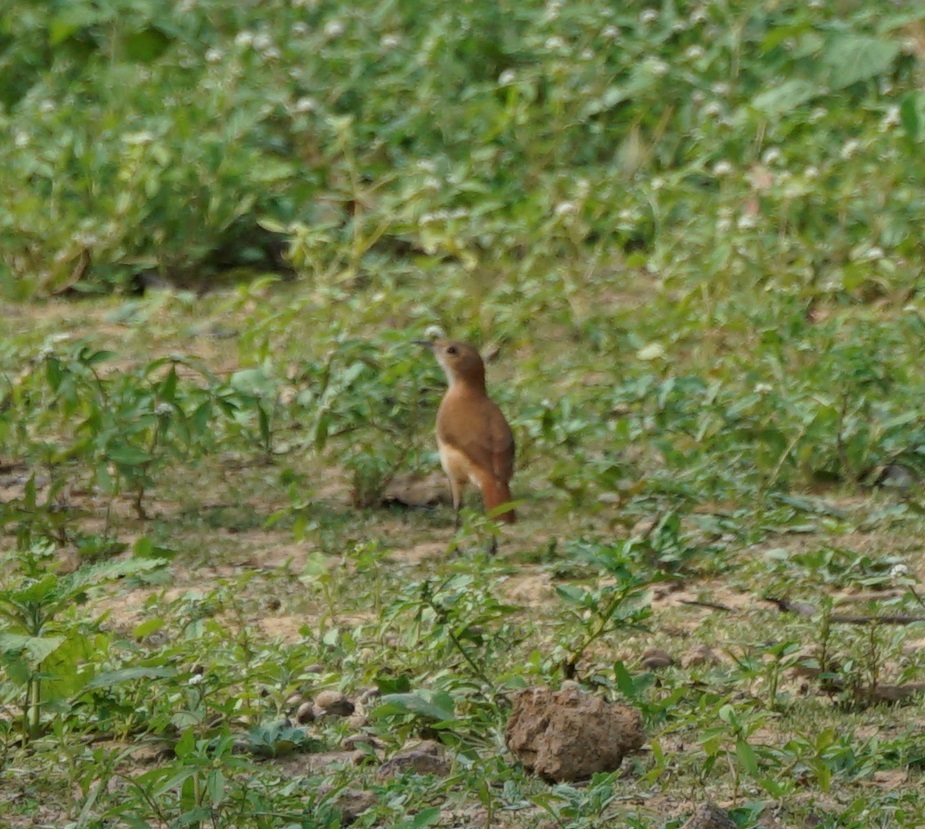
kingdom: Animalia
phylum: Chordata
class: Aves
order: Passeriformes
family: Furnariidae
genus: Furnarius
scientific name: Furnarius rufus
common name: Rufous hornero
